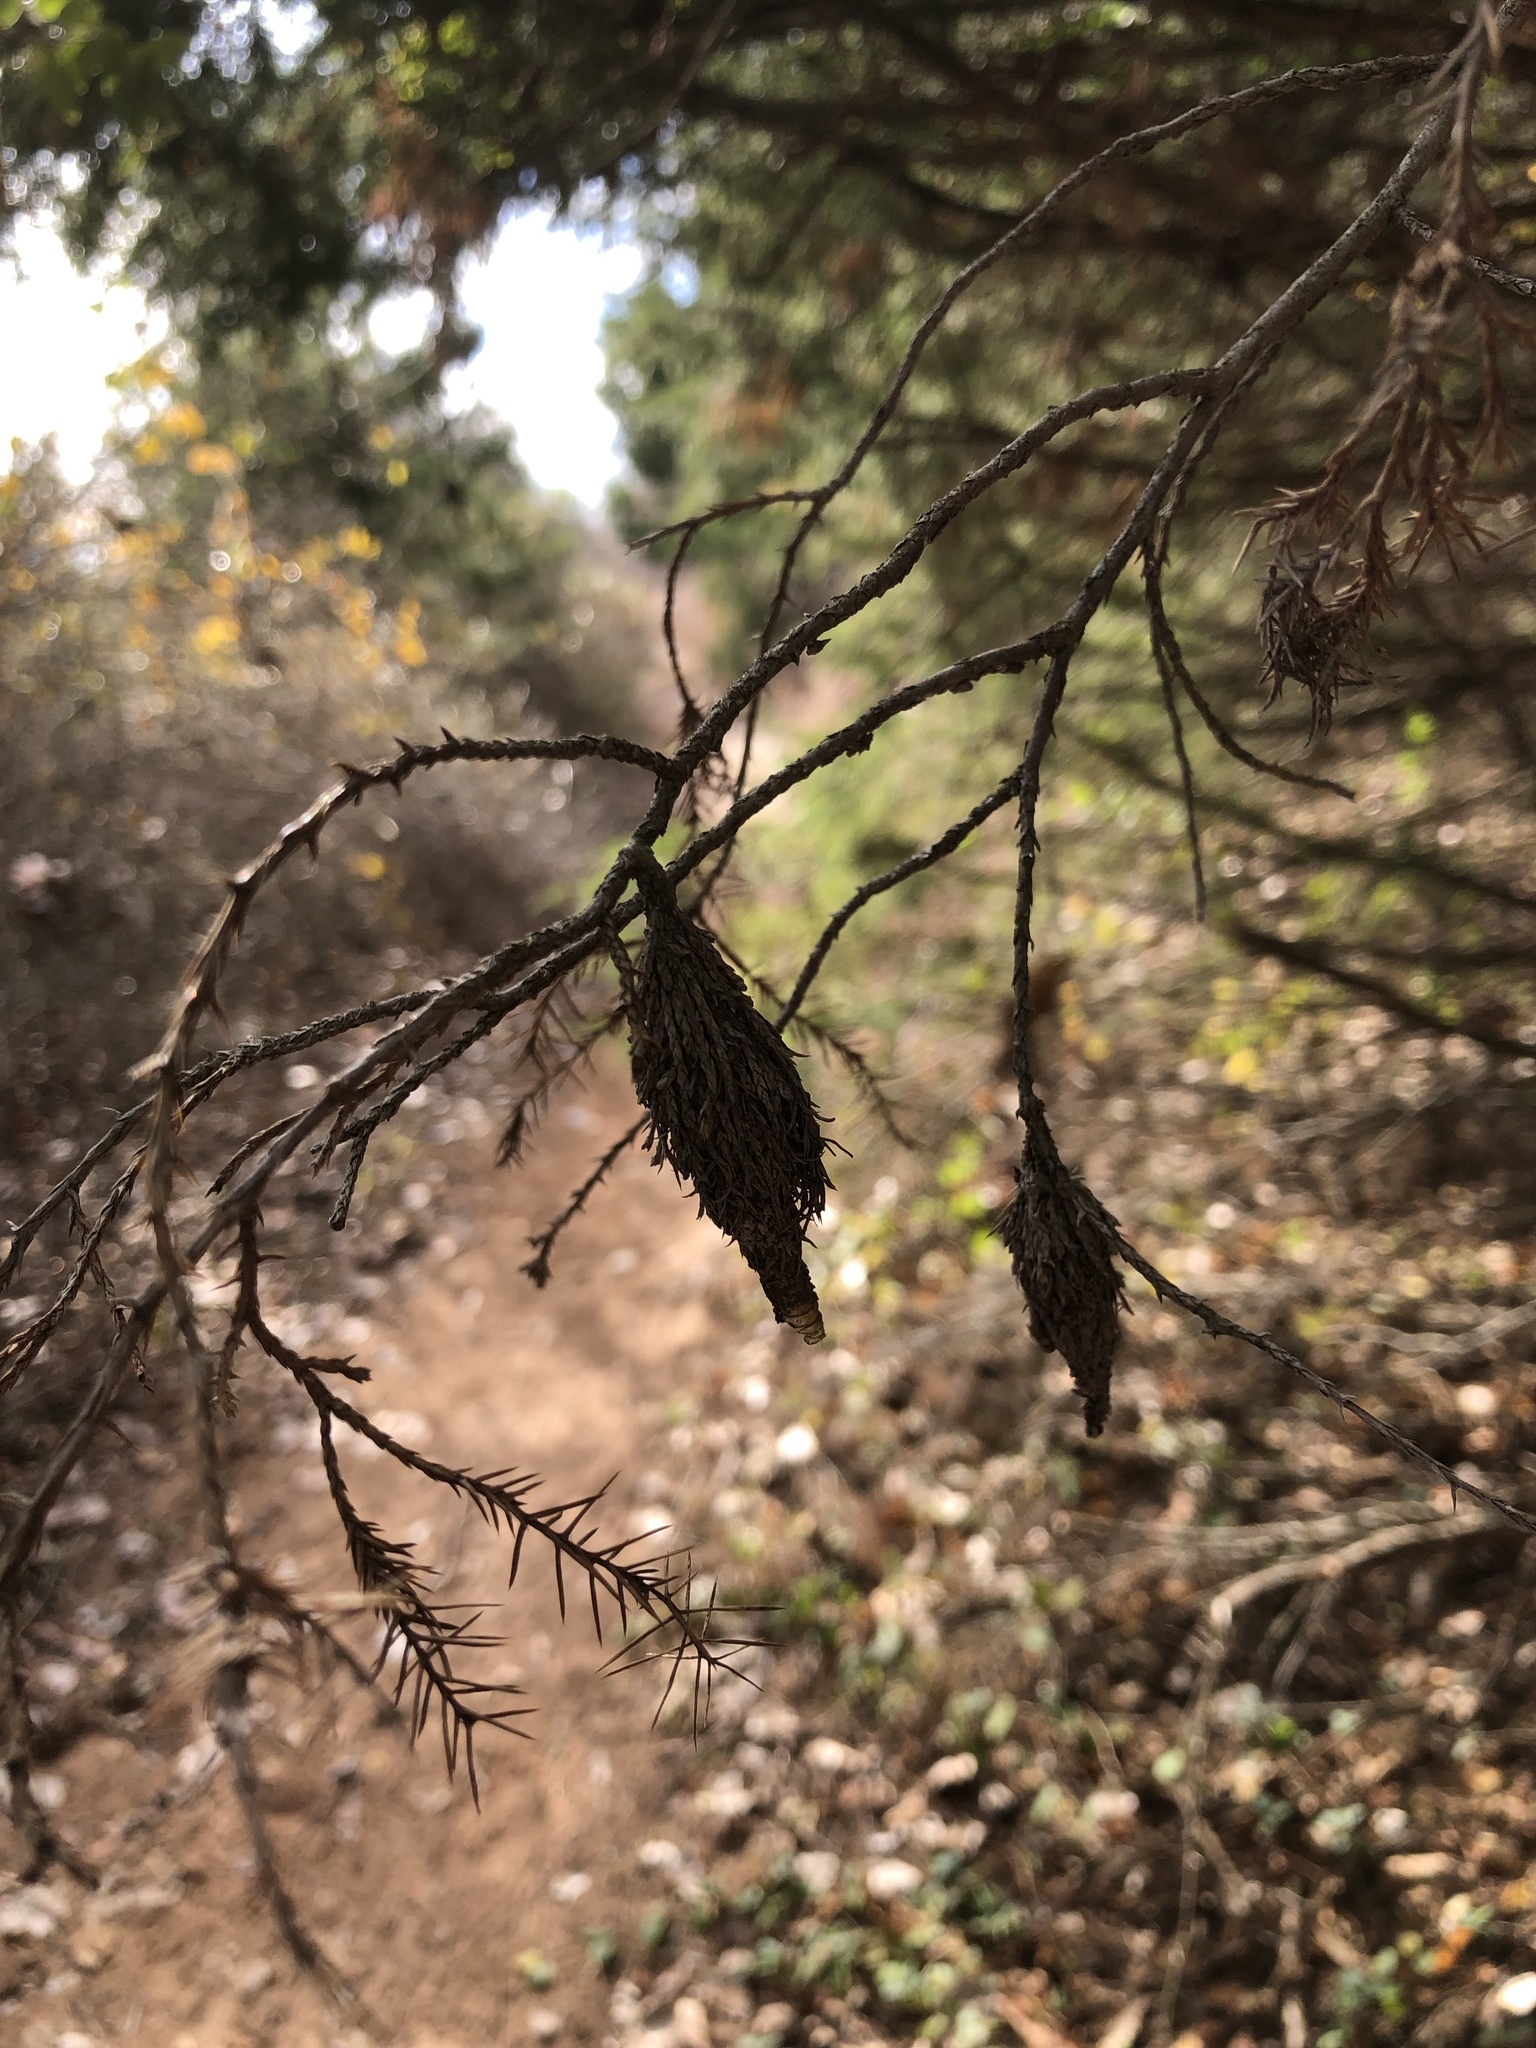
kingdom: Animalia
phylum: Arthropoda
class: Insecta
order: Lepidoptera
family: Psychidae
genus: Thyridopteryx
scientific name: Thyridopteryx ephemeraeformis
